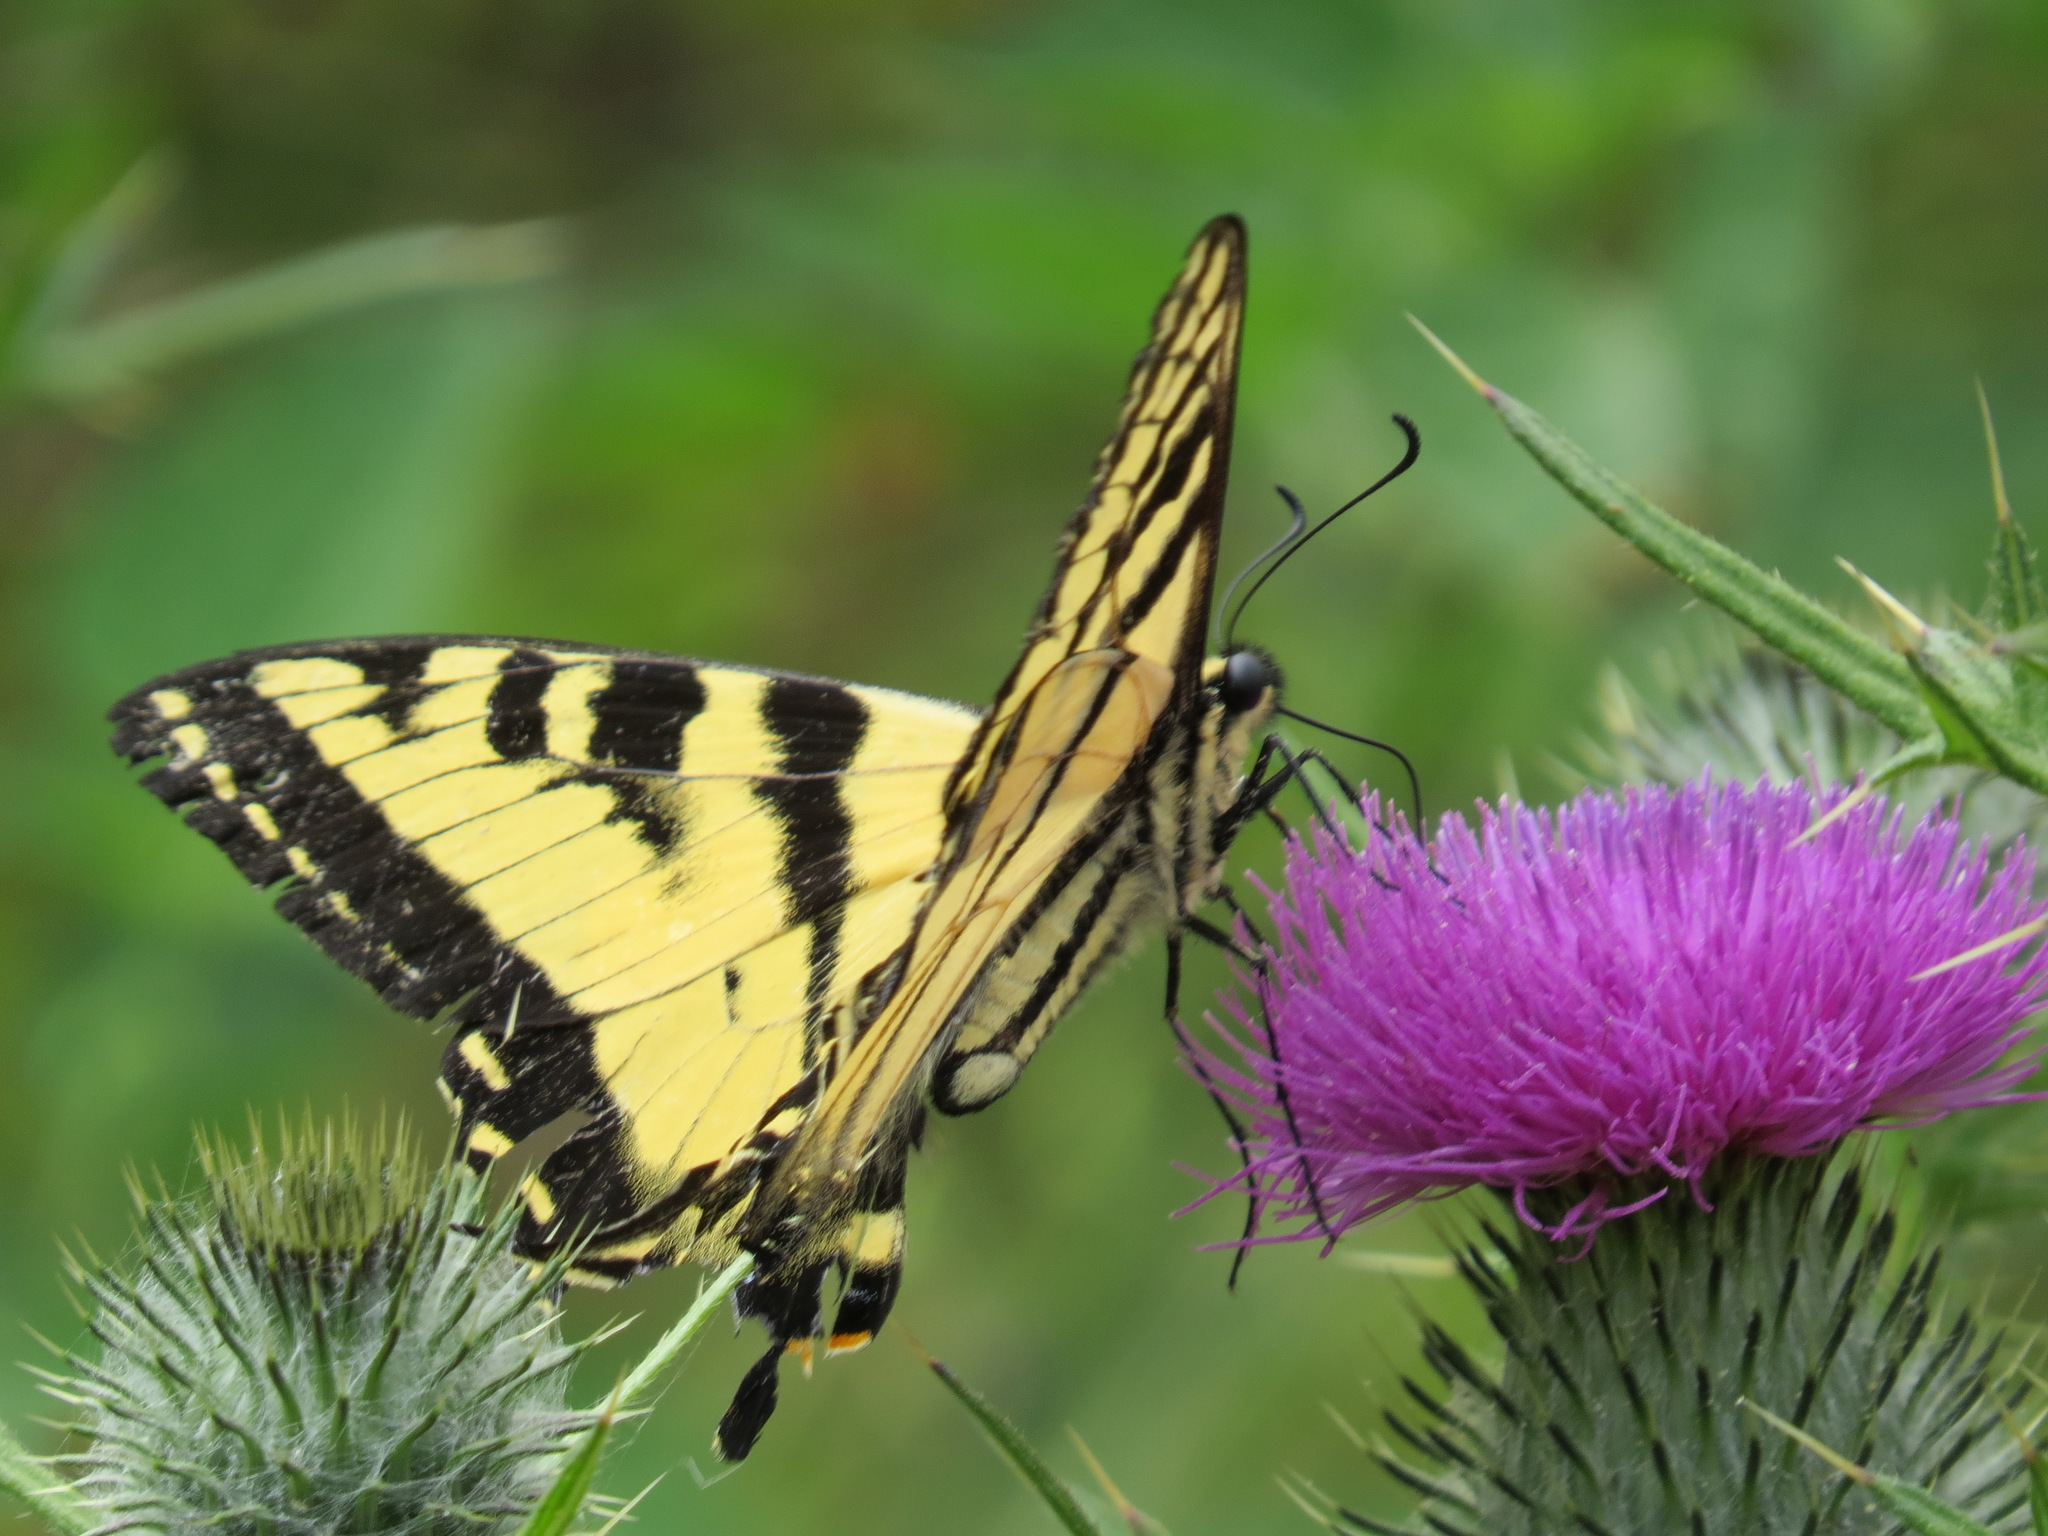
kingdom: Animalia
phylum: Arthropoda
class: Insecta
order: Lepidoptera
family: Papilionidae
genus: Papilio
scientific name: Papilio rutulus
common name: Western tiger swallowtail
